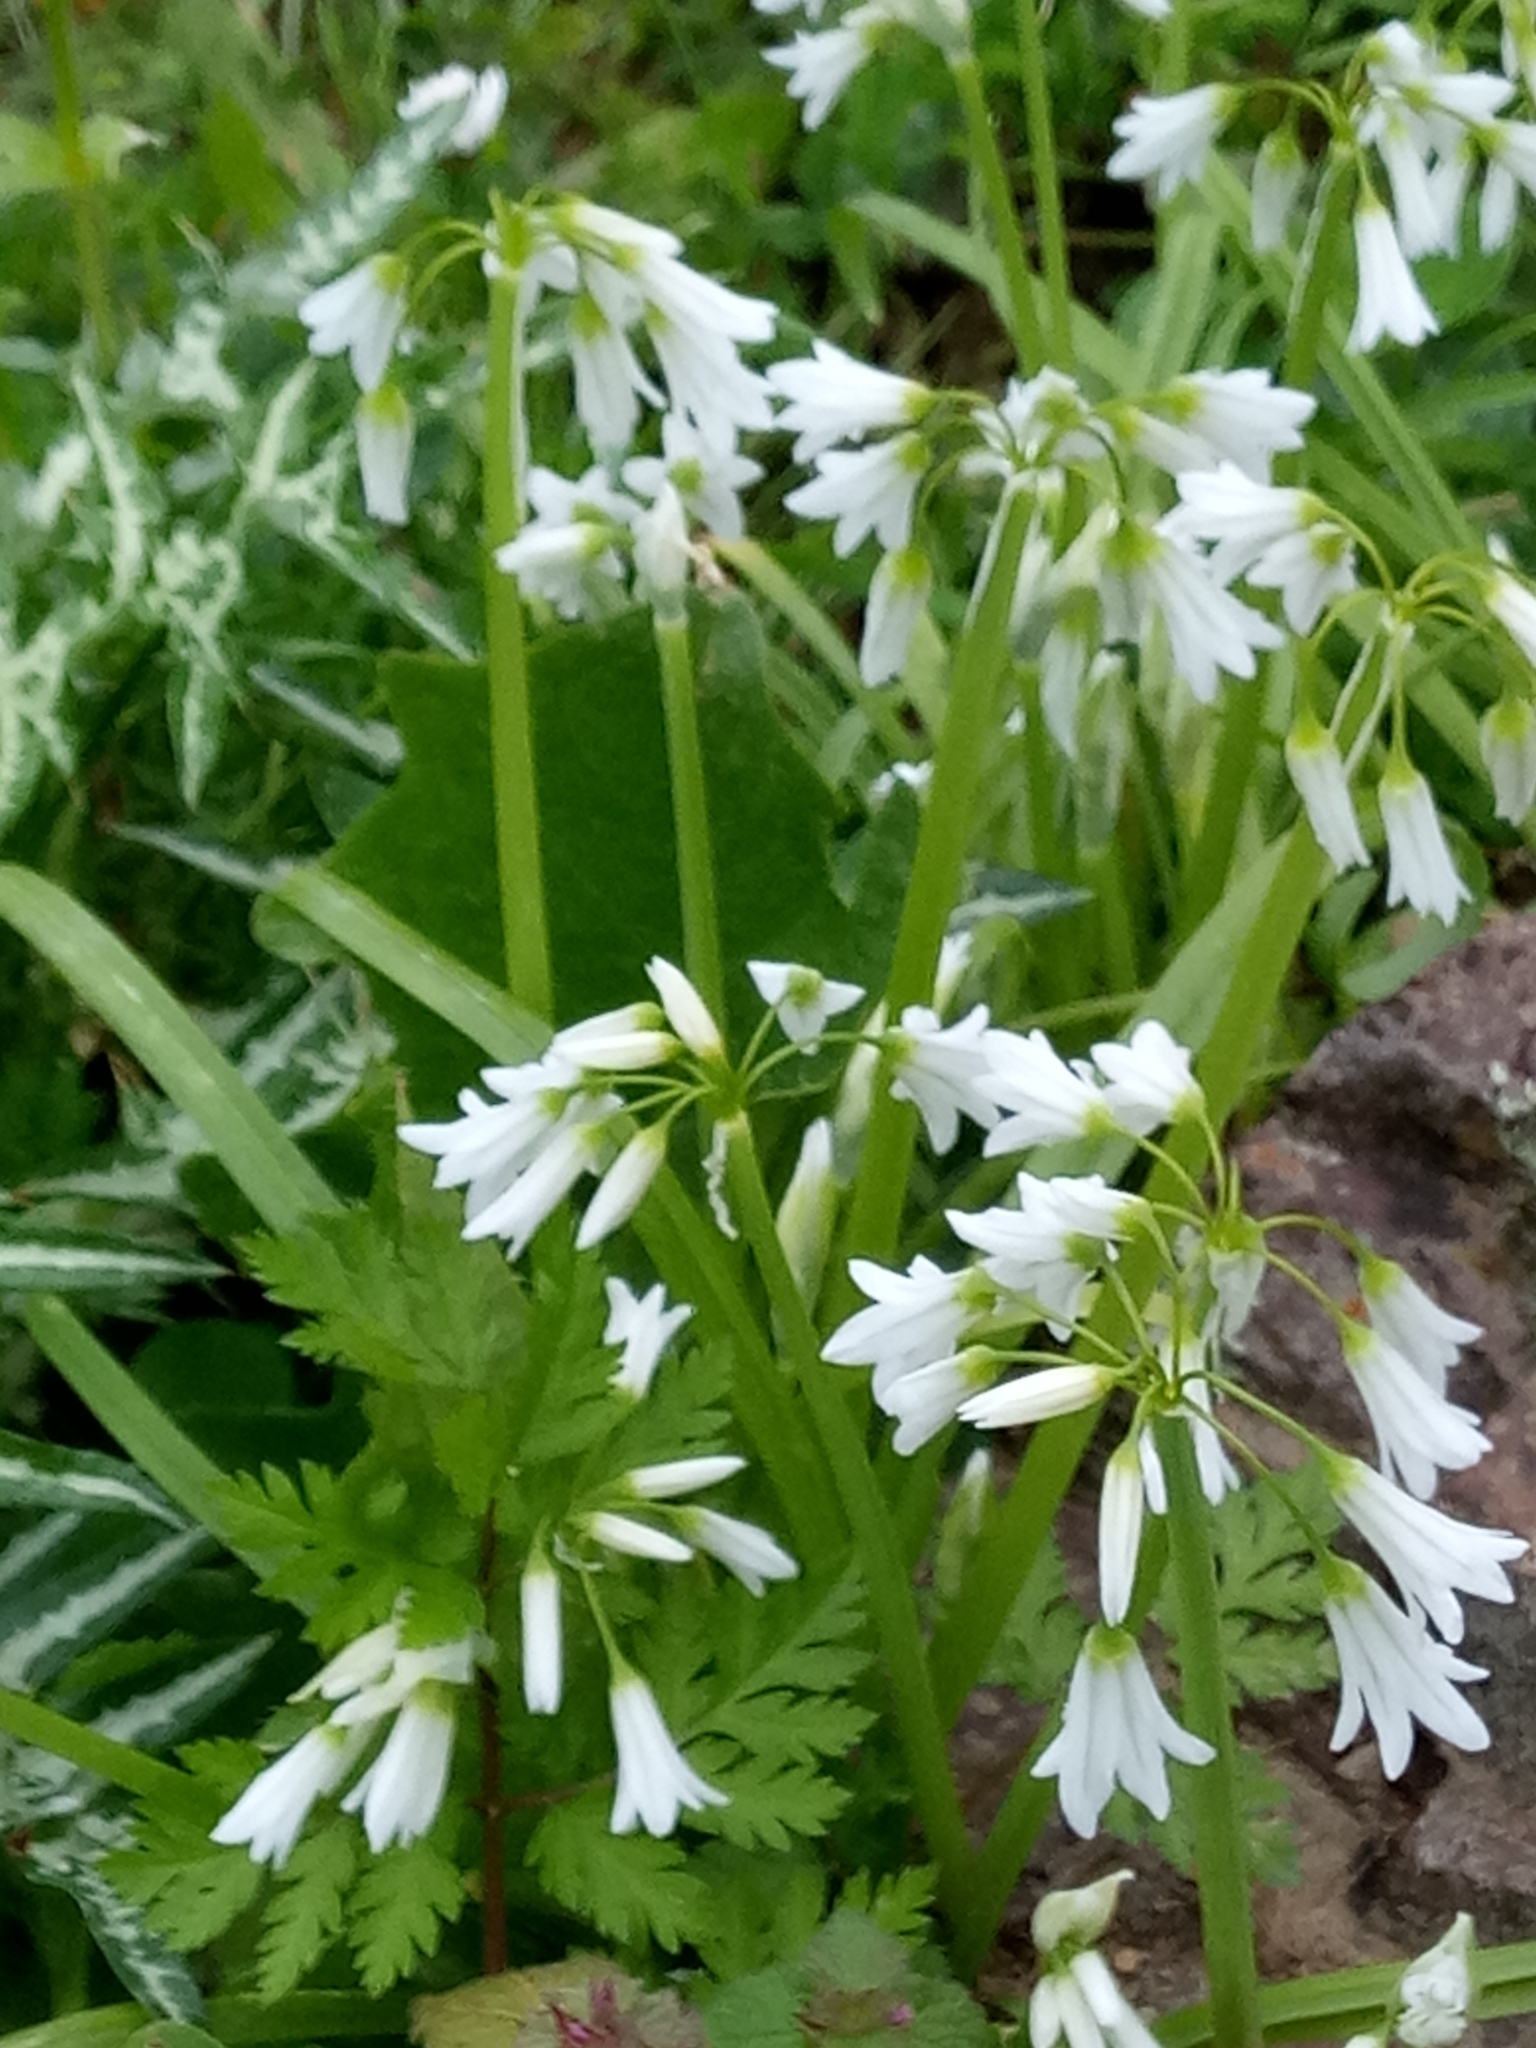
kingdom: Plantae
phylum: Tracheophyta
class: Liliopsida
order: Asparagales
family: Amaryllidaceae
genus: Allium
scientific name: Allium triquetrum
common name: Three-cornered garlic
